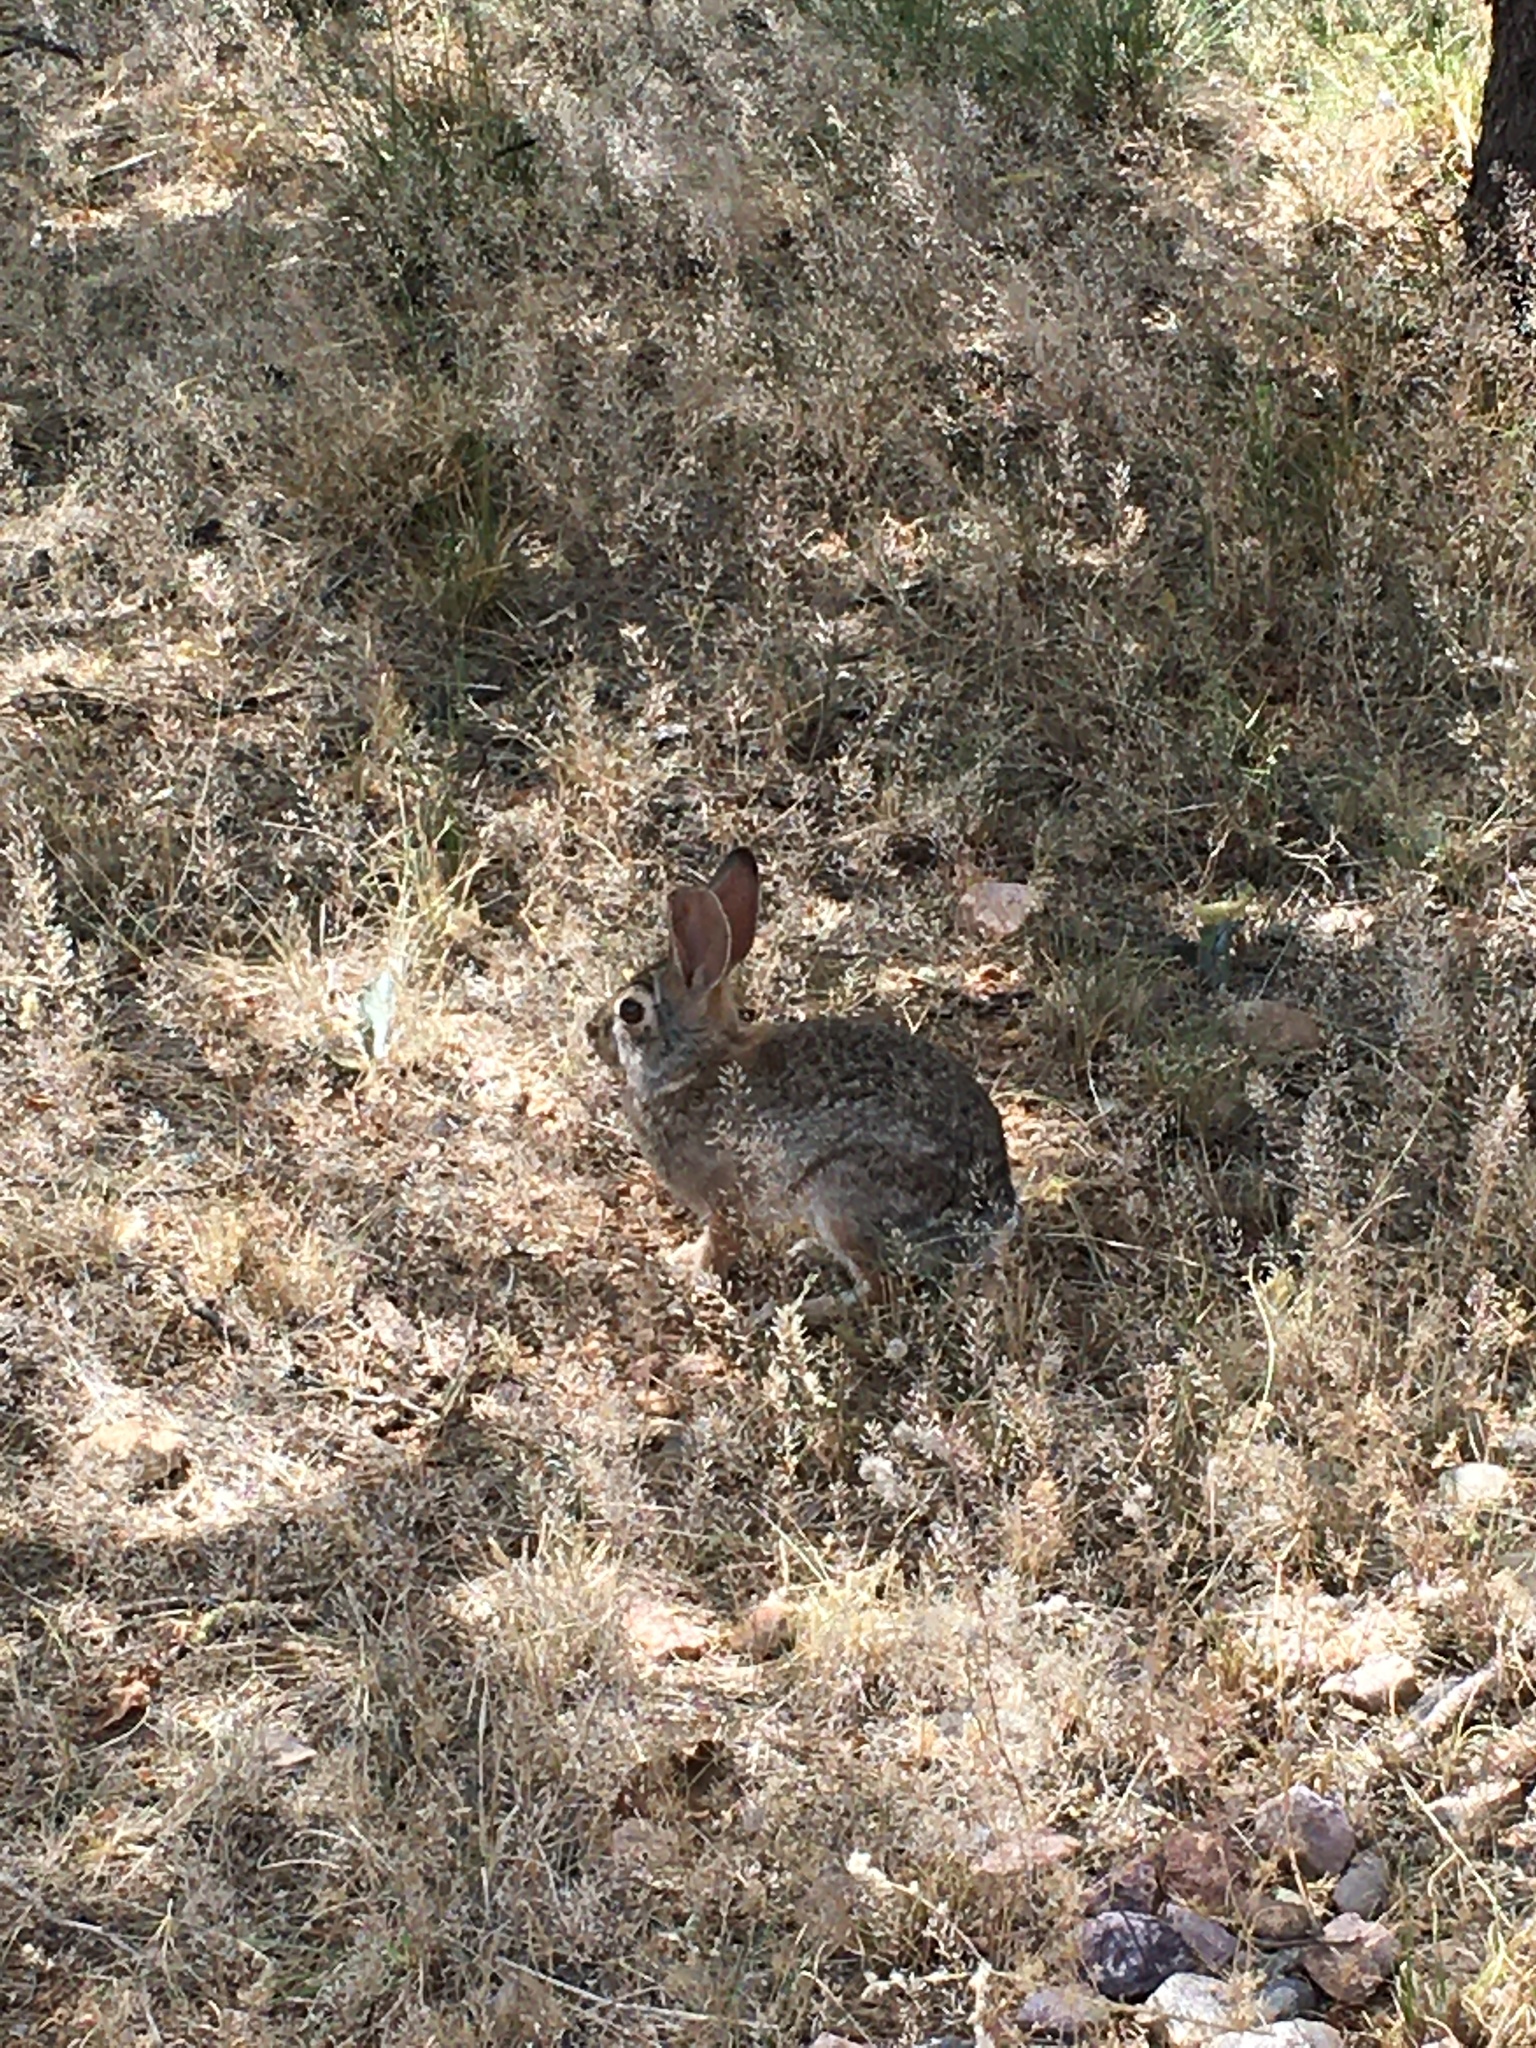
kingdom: Animalia
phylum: Chordata
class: Mammalia
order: Lagomorpha
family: Leporidae
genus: Sylvilagus
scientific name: Sylvilagus audubonii
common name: Desert cottontail
